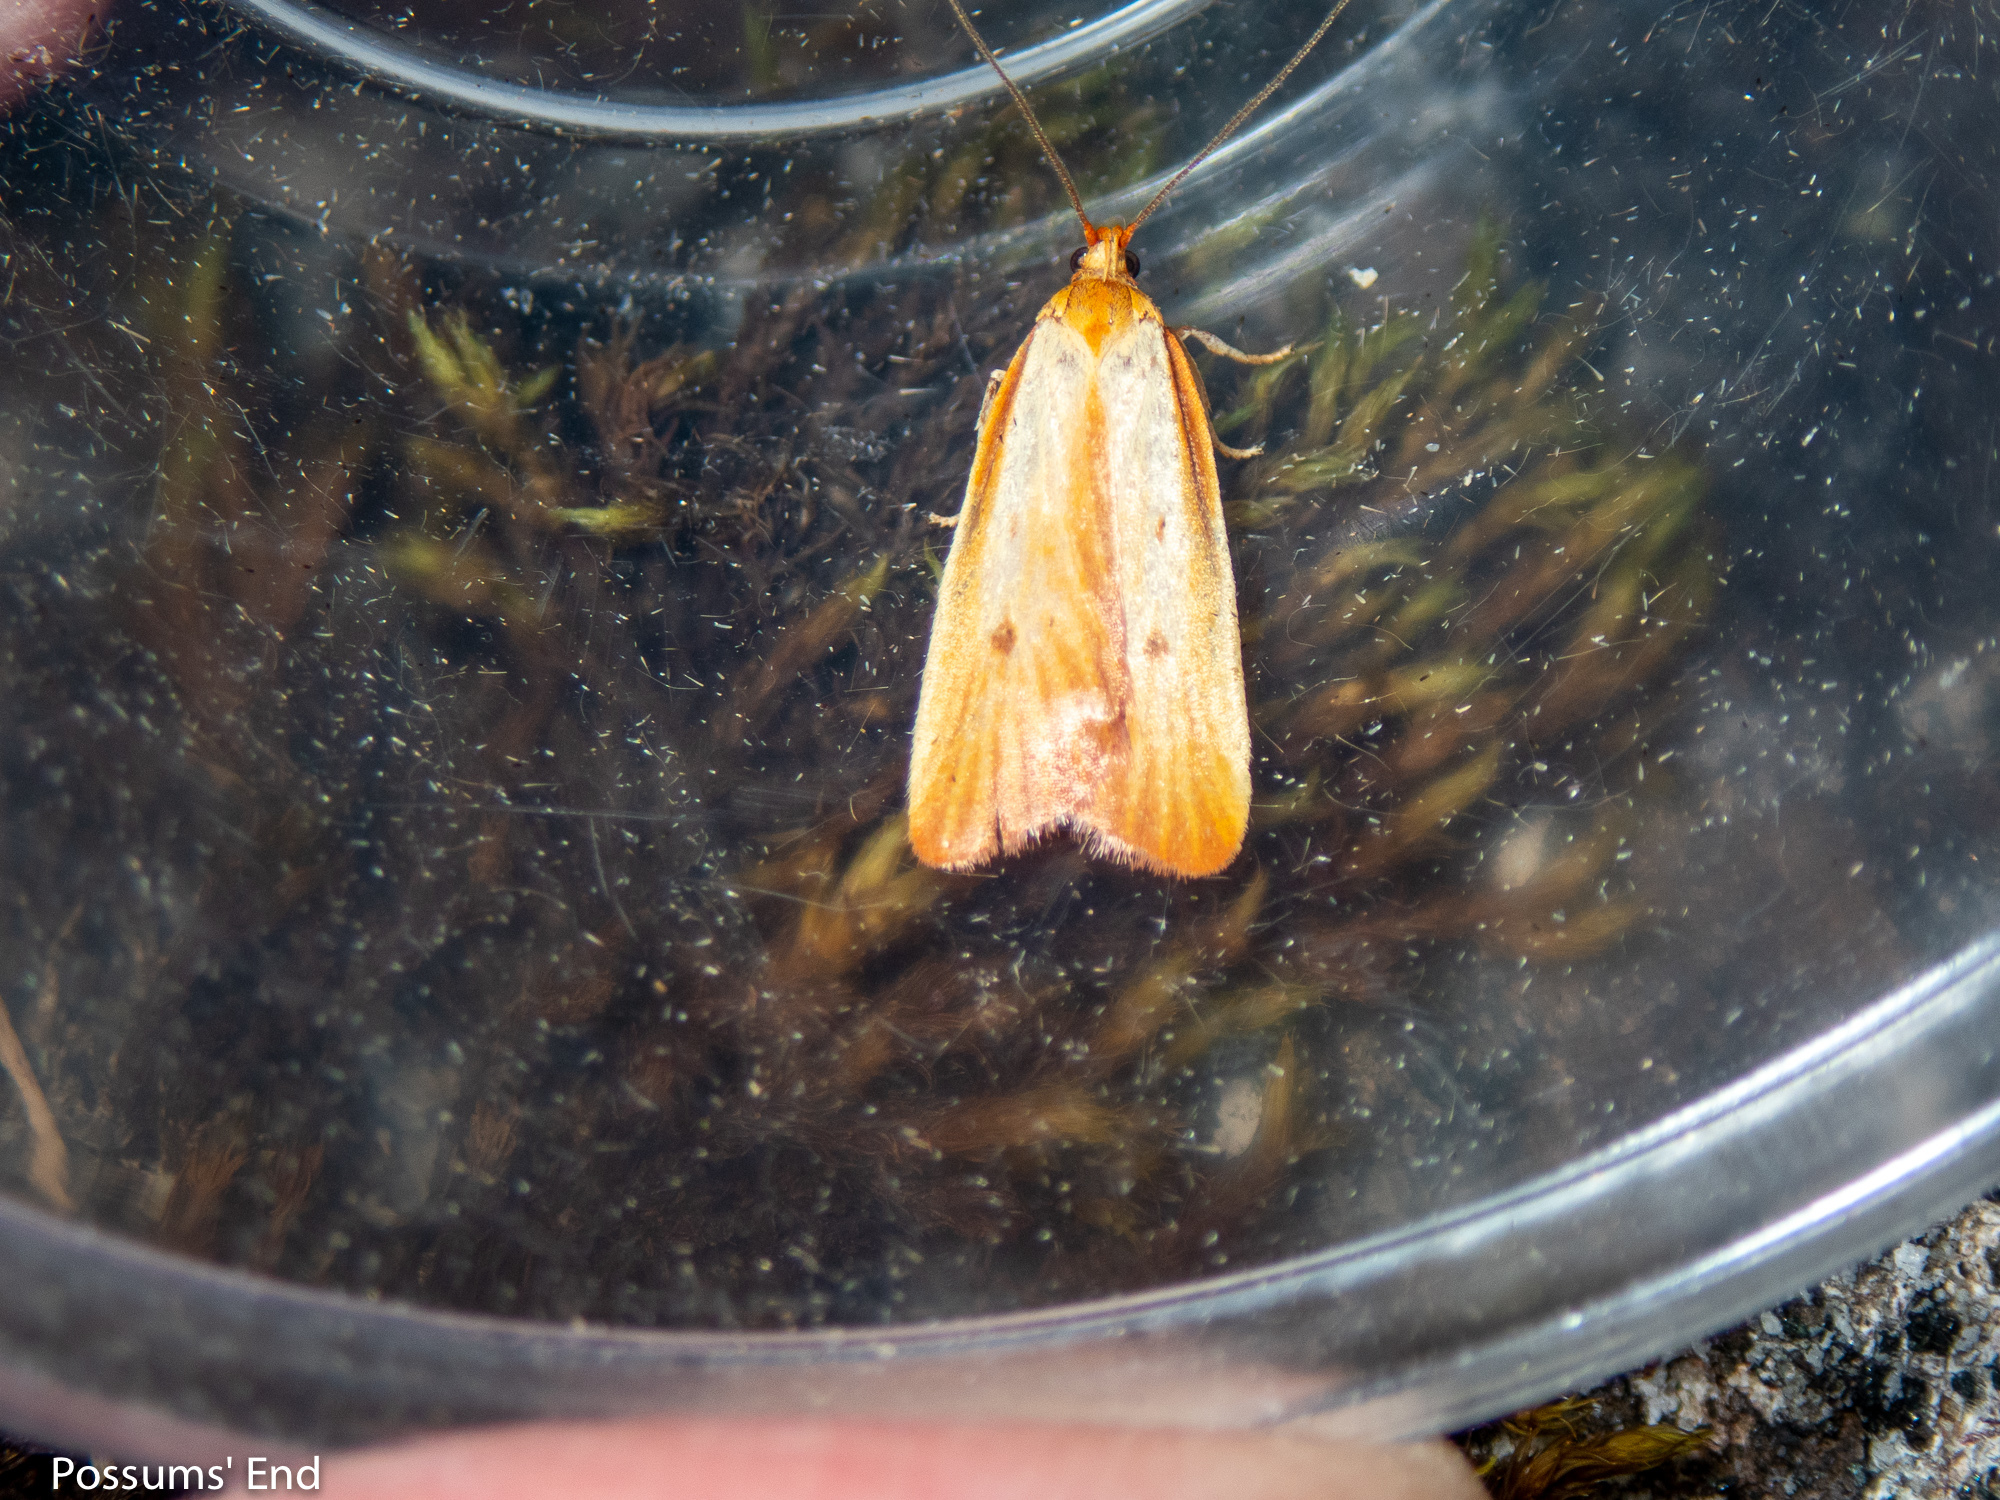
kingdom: Animalia
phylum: Arthropoda
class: Insecta
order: Lepidoptera
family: Oecophoridae
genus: Proteodes
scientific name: Proteodes smithi
